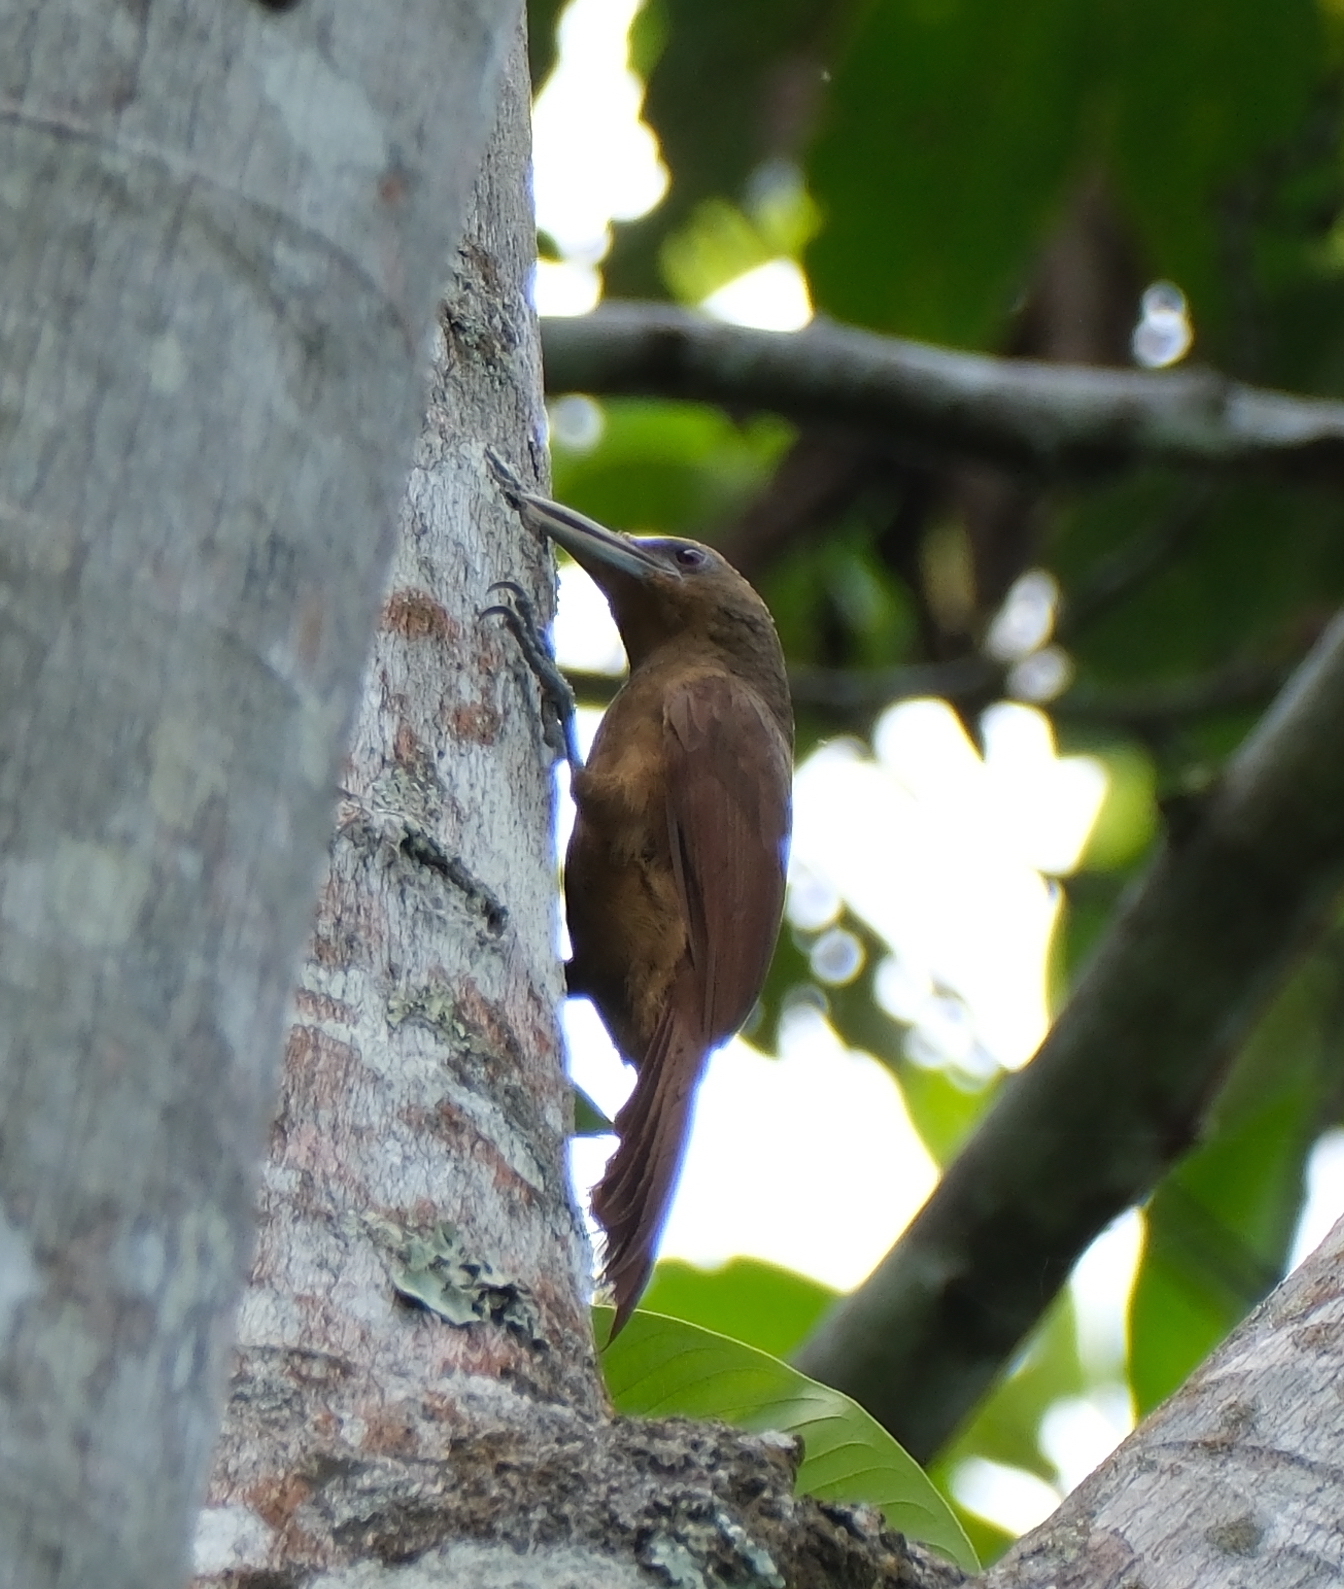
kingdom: Animalia
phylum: Chordata
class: Aves
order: Passeriformes
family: Furnariidae
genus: Dendrexetastes
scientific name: Dendrexetastes rufigula
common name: Cinnamon-throated woodcreeper
